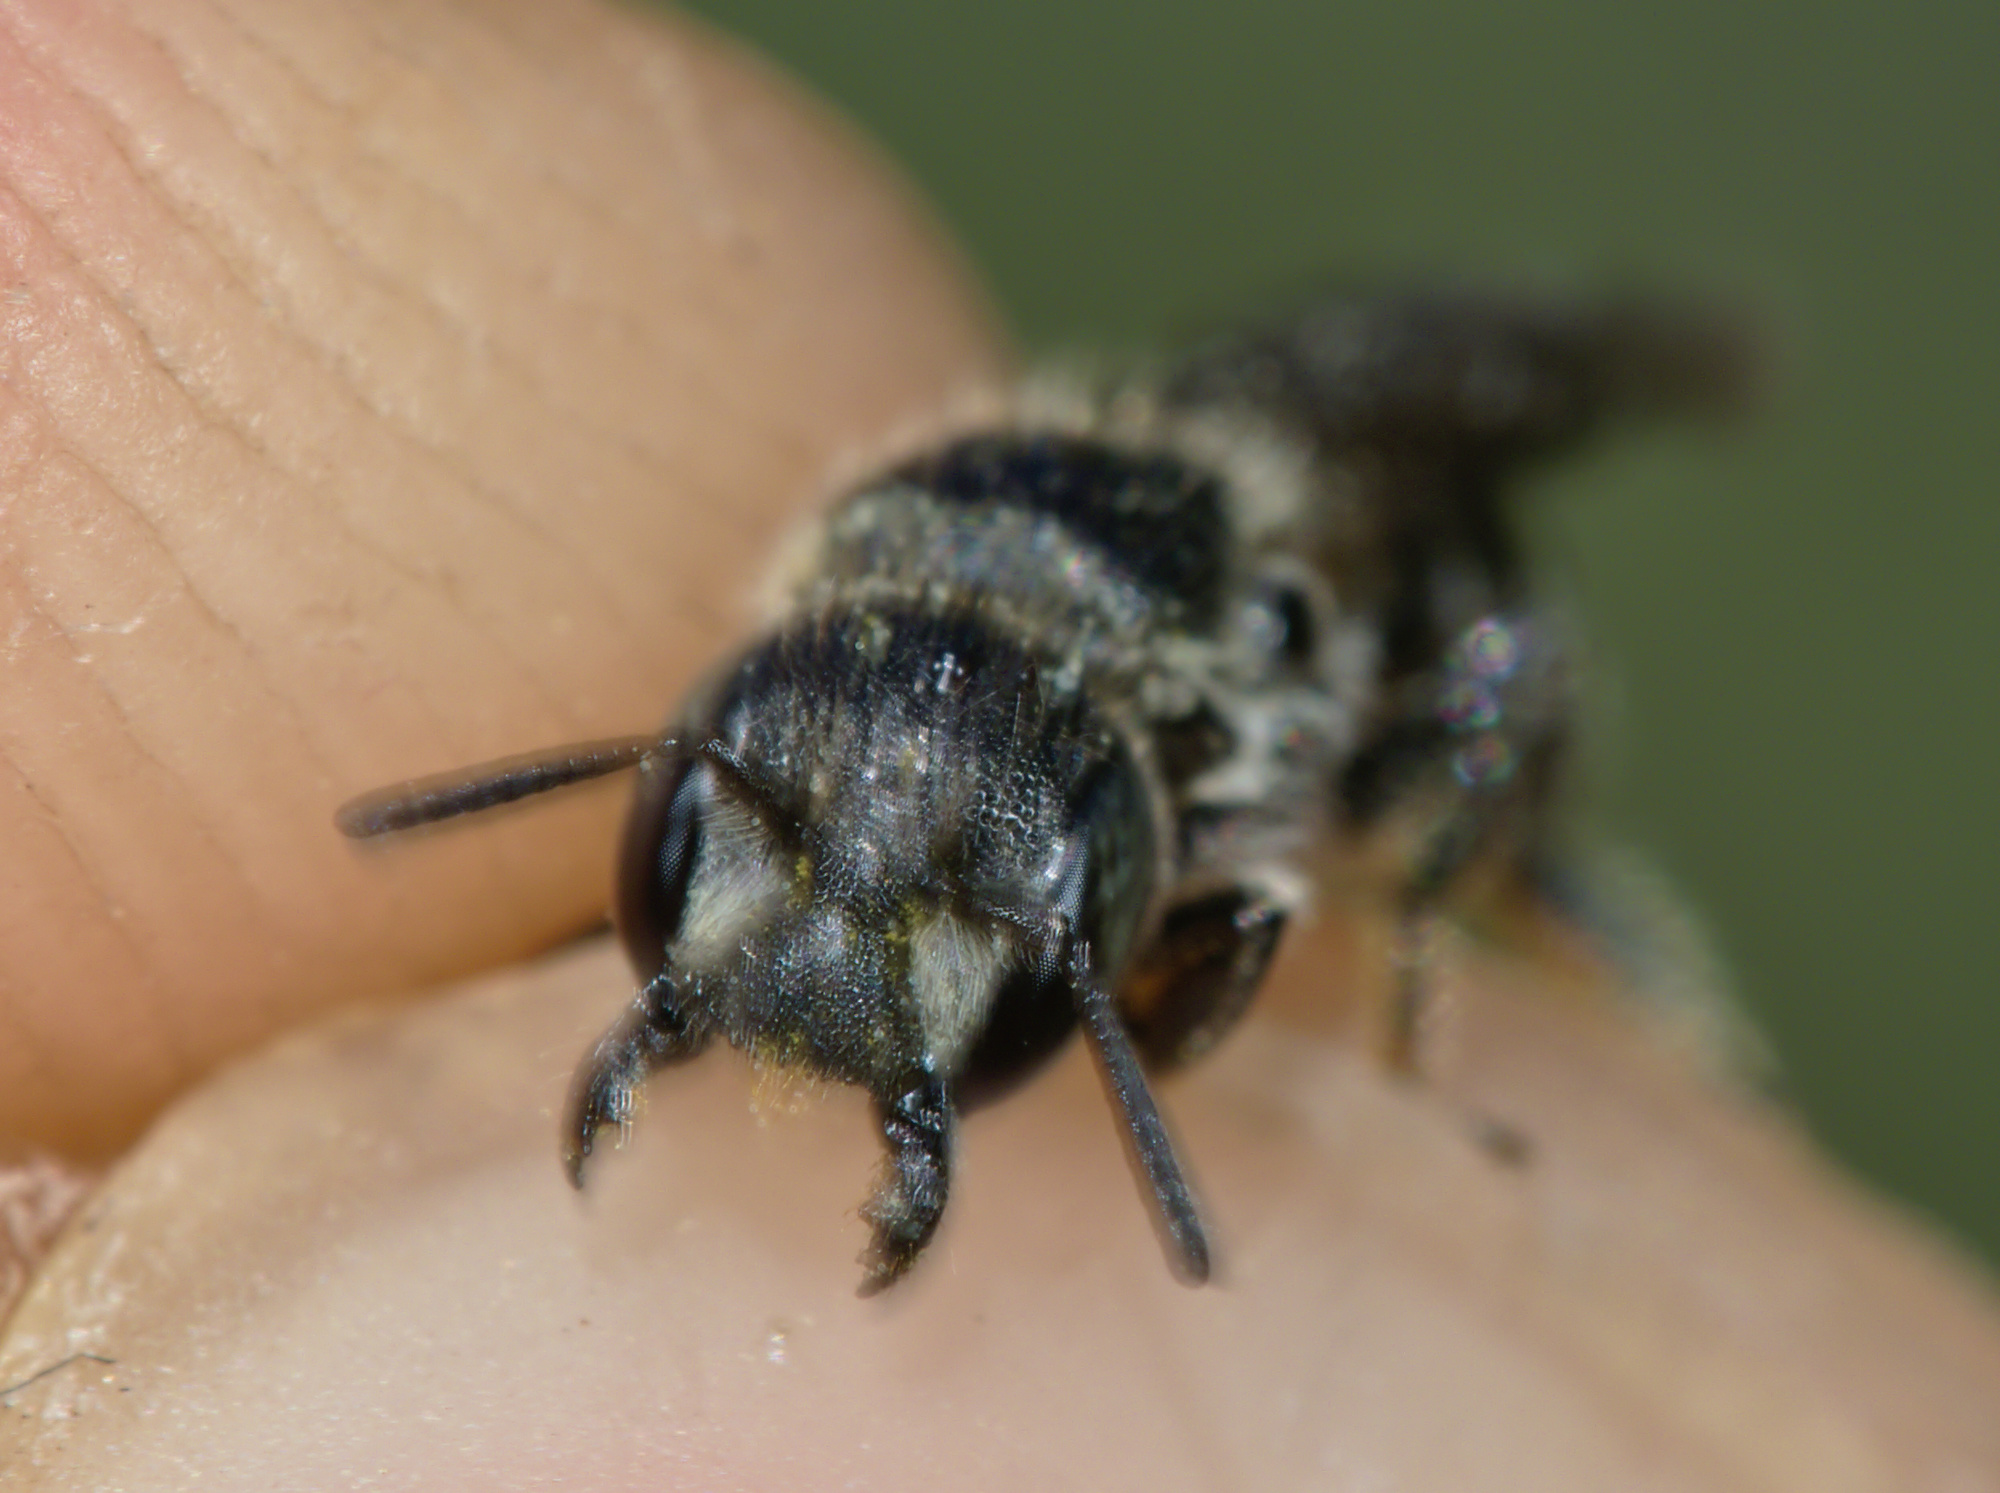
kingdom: Animalia
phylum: Arthropoda
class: Insecta
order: Hymenoptera
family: Megachilidae
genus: Chelostoma
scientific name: Chelostoma rapunculi
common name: Rampion scissor bee
